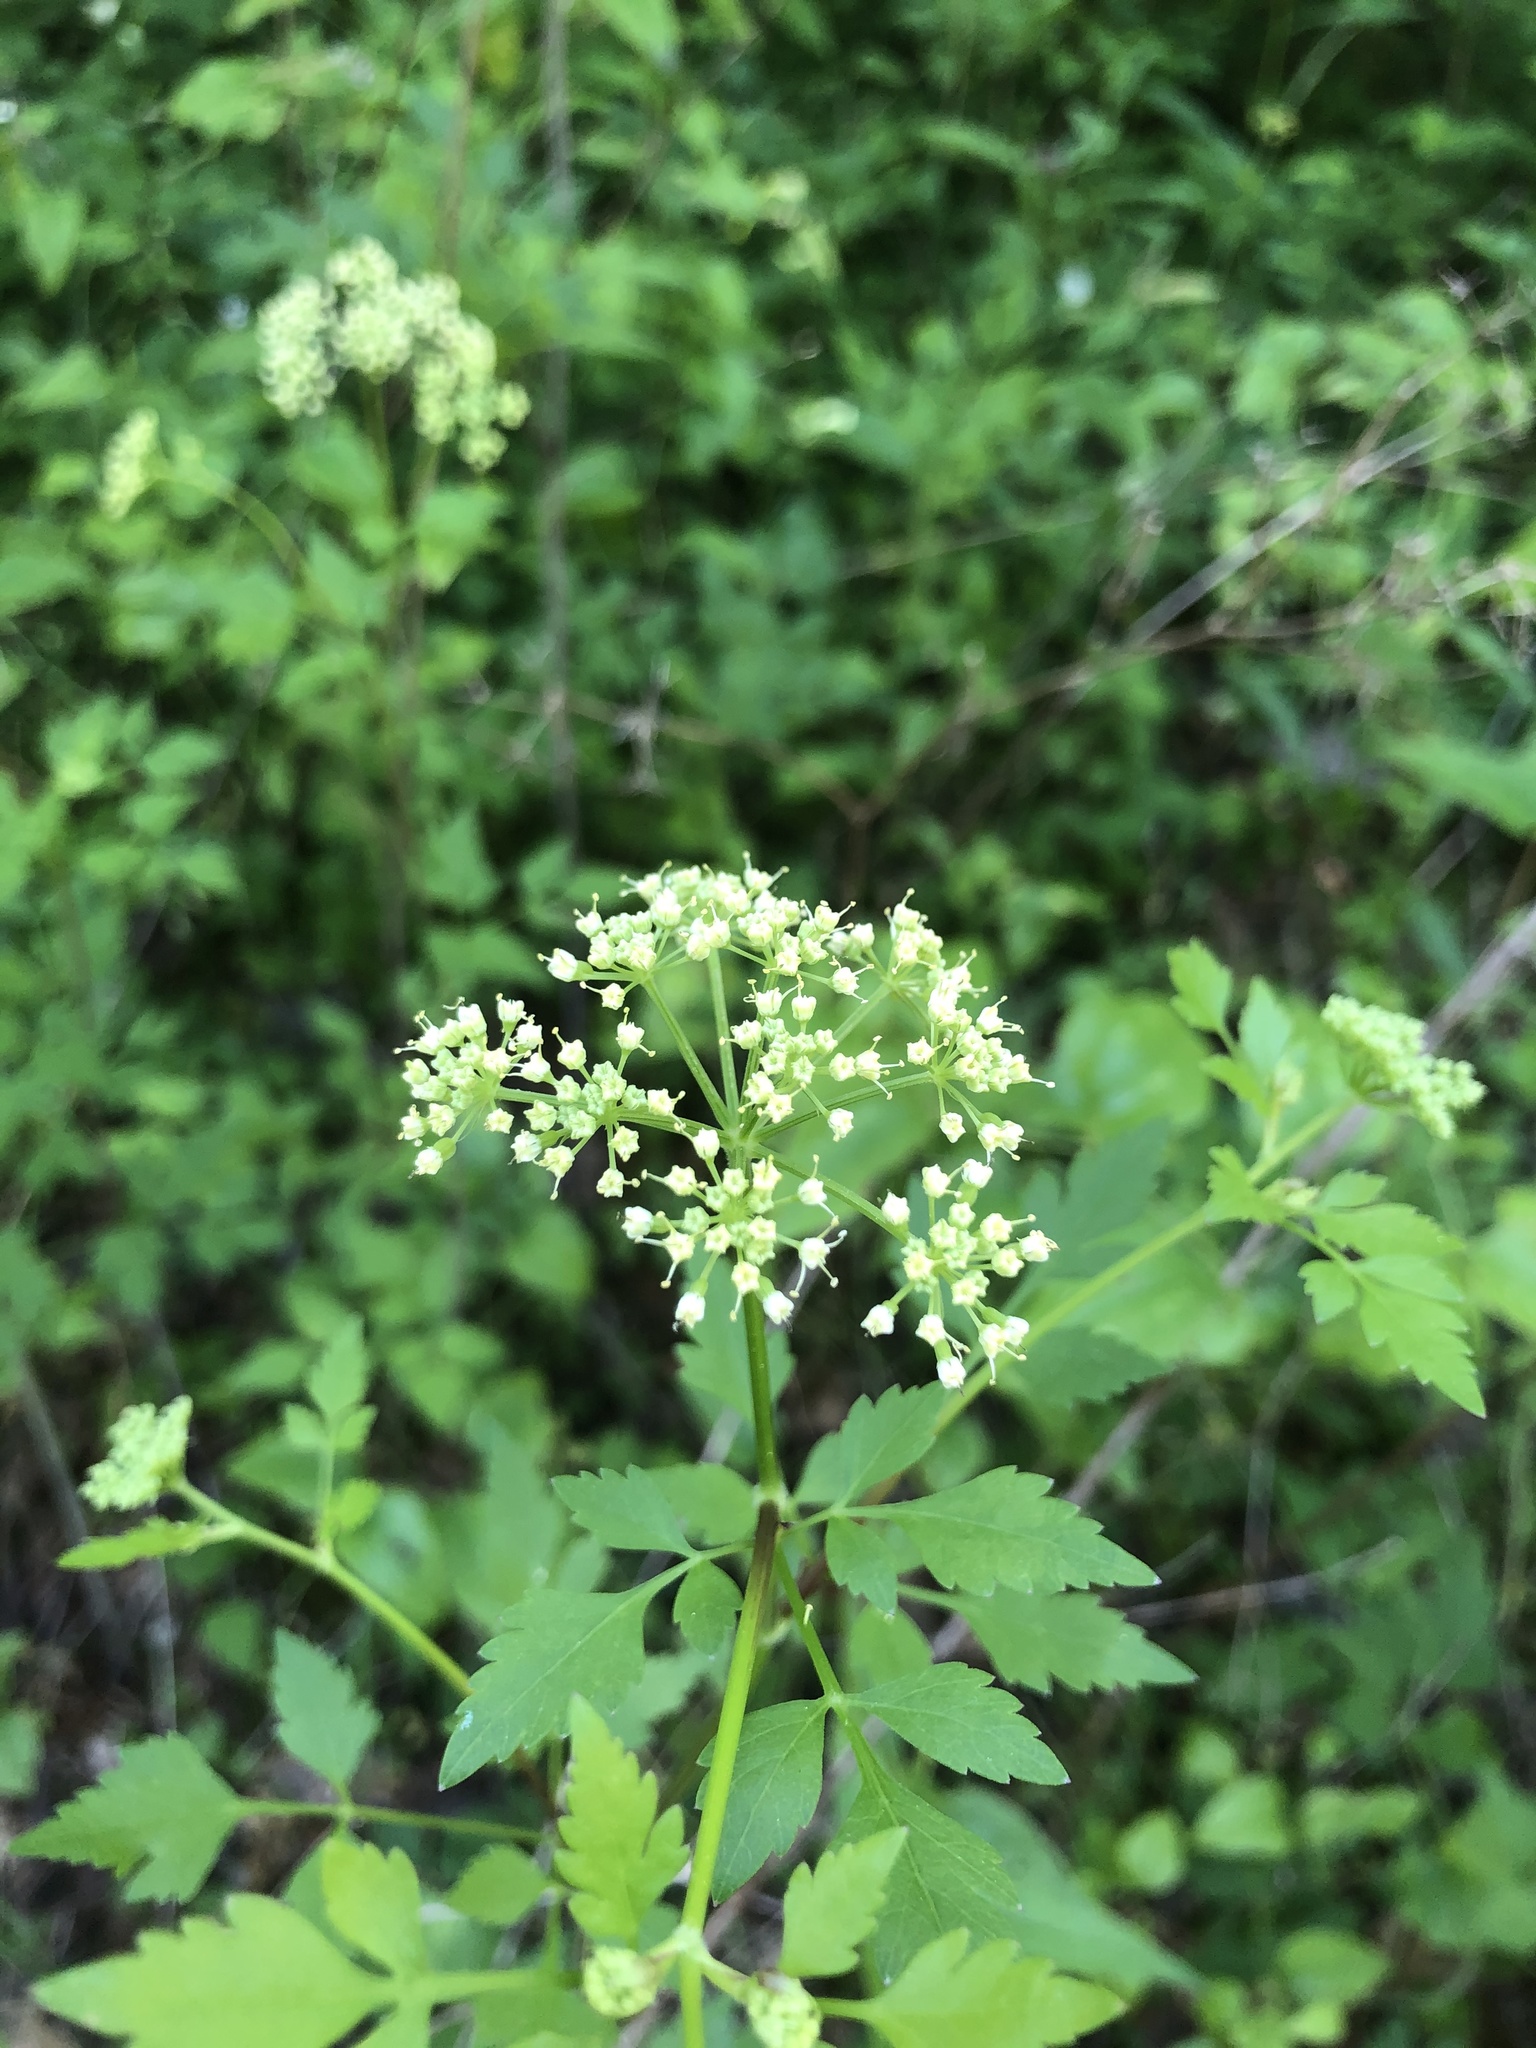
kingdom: Plantae
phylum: Tracheophyta
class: Magnoliopsida
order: Apiales
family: Apiaceae
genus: Thaspium
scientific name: Thaspium barbinode
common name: Bearded meadow-parsnip
